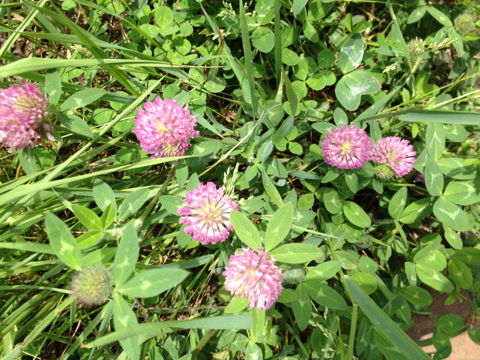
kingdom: Plantae
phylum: Tracheophyta
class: Magnoliopsida
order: Fabales
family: Fabaceae
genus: Trifolium
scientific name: Trifolium pratense
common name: Red clover
